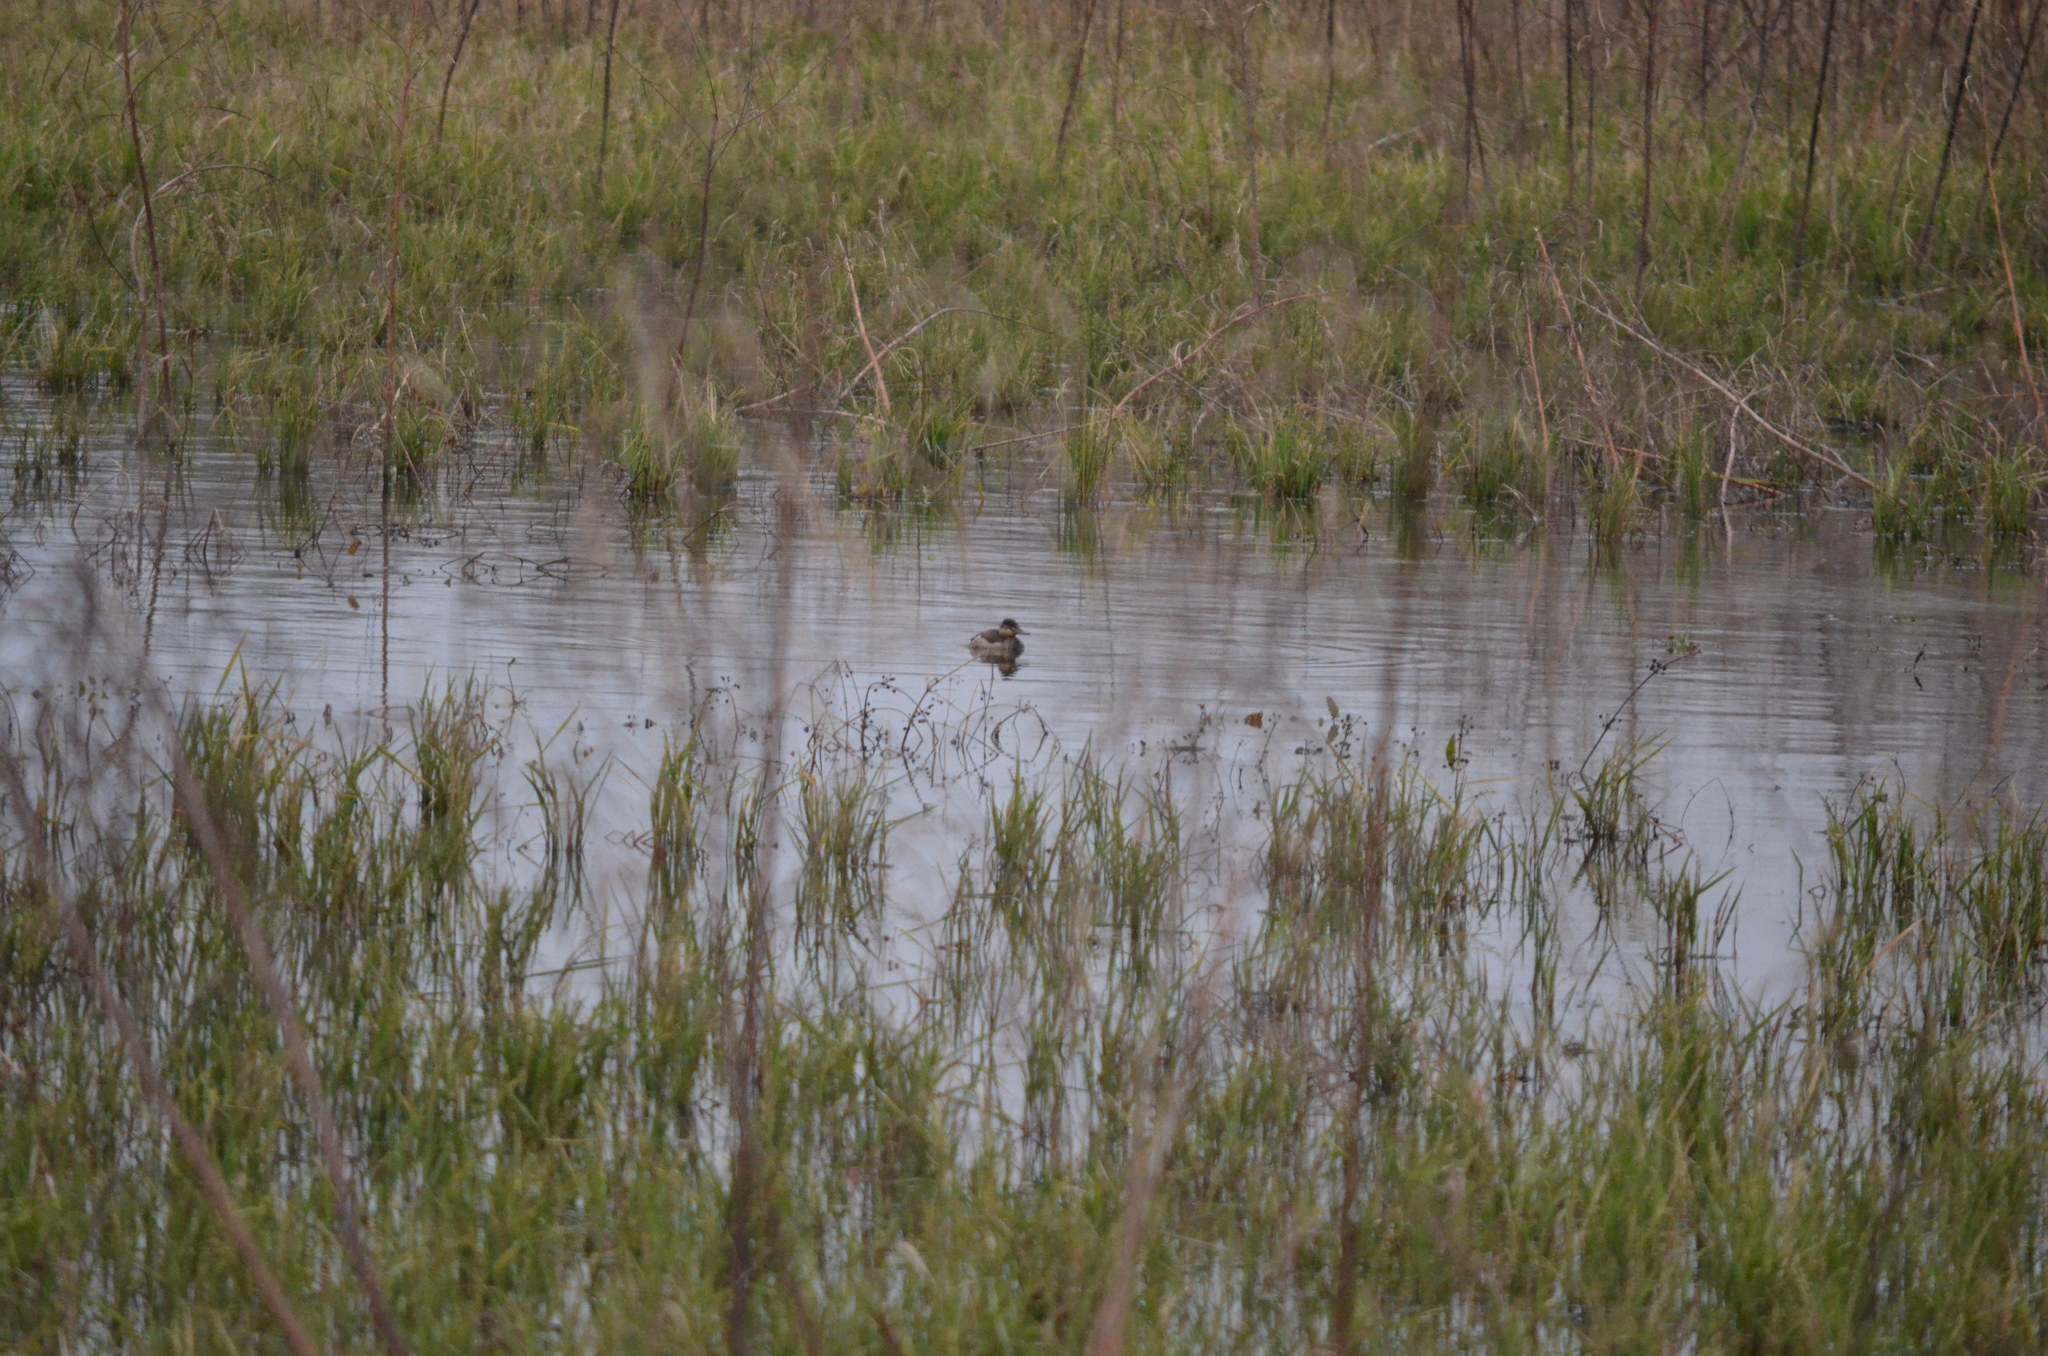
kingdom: Animalia
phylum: Chordata
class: Aves
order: Anseriformes
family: Anatidae
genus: Oxyura
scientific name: Oxyura jamaicensis
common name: Ruddy duck
